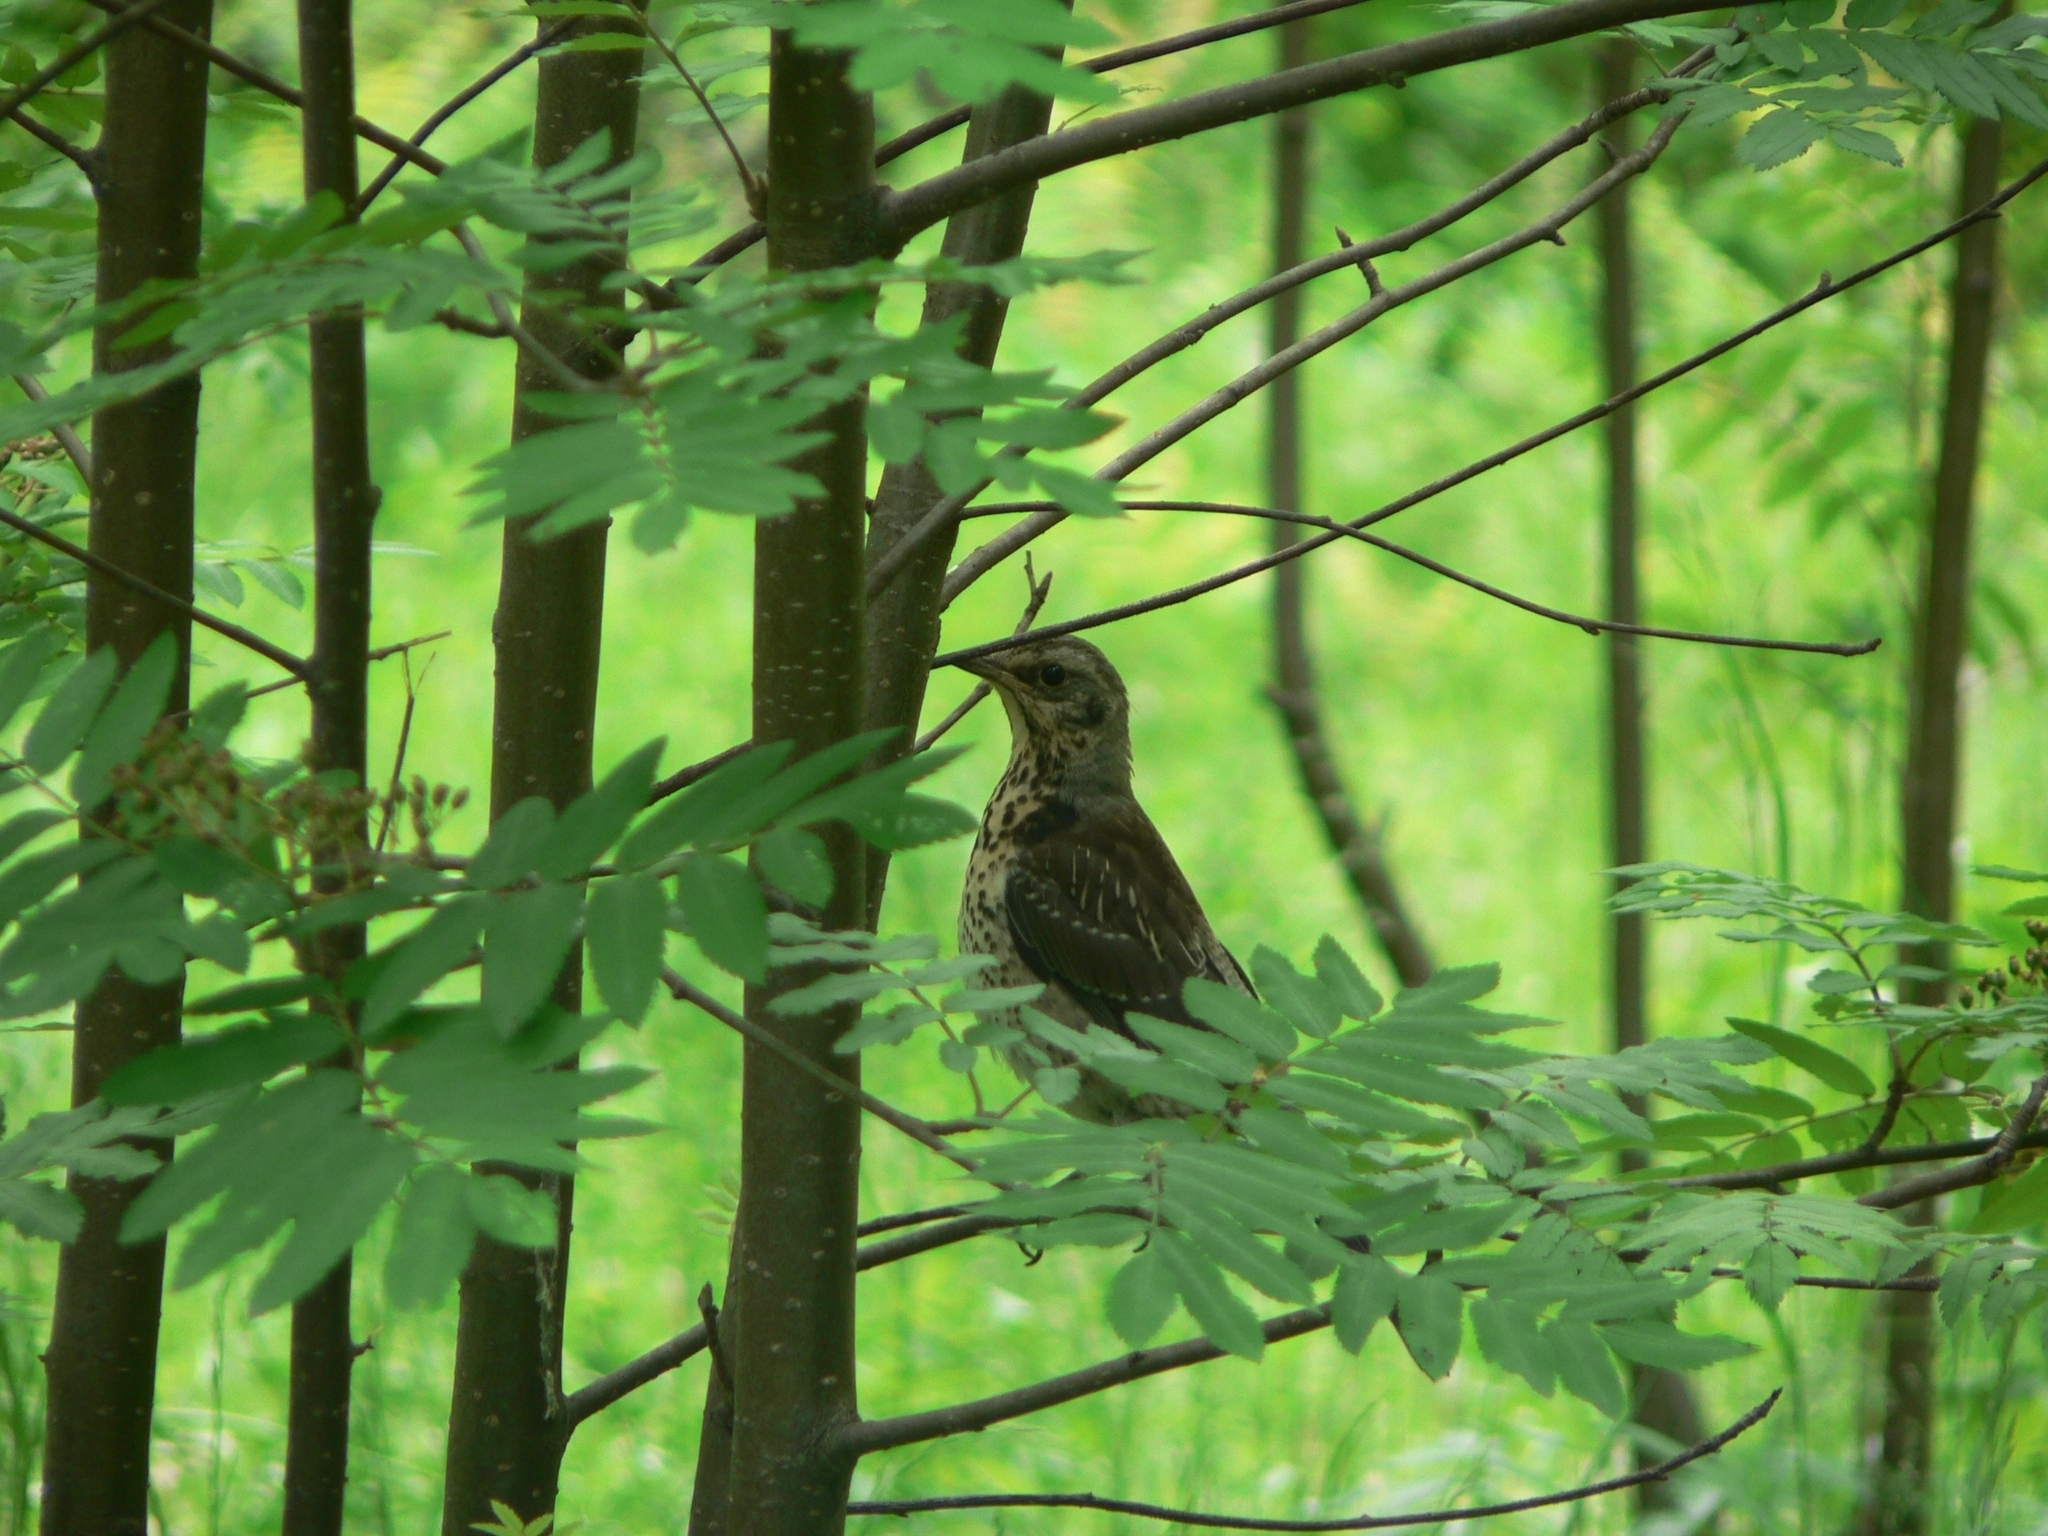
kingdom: Animalia
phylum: Chordata
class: Aves
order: Passeriformes
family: Turdidae
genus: Turdus
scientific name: Turdus pilaris
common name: Fieldfare
